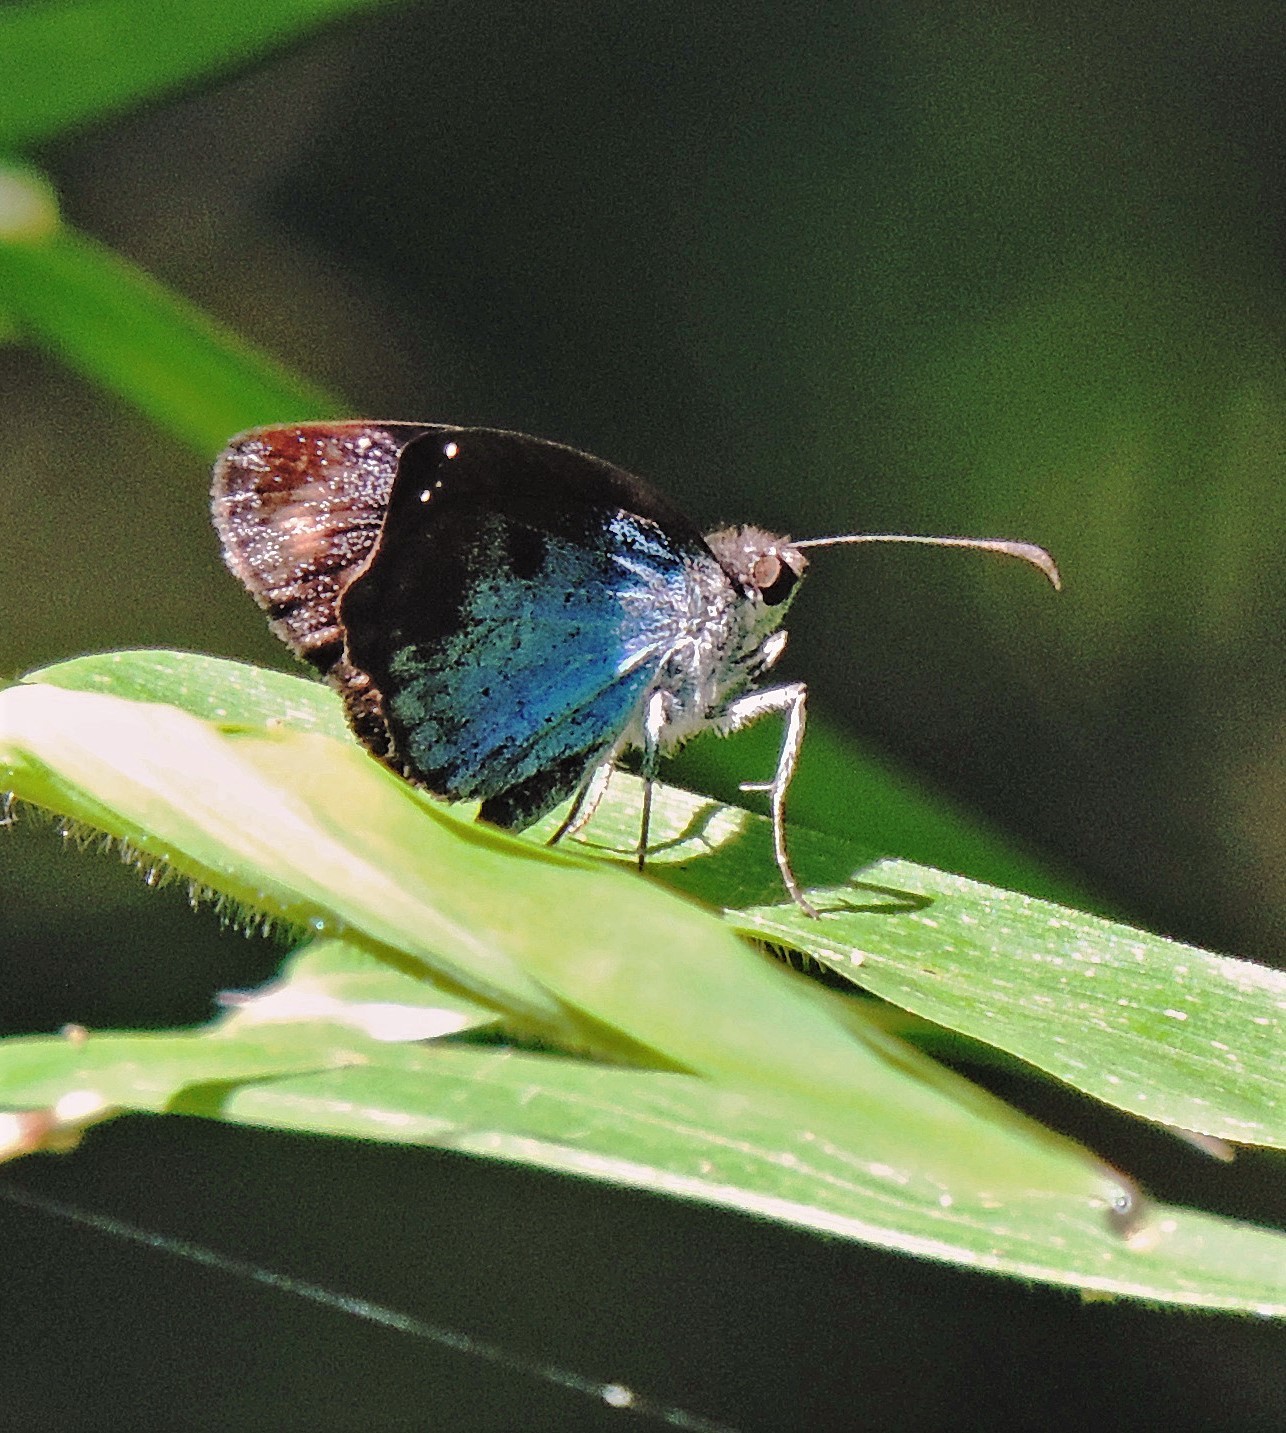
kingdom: Animalia
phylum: Arthropoda
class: Insecta
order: Lepidoptera
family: Hesperiidae
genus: Quadrus
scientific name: Quadrus ulucida
